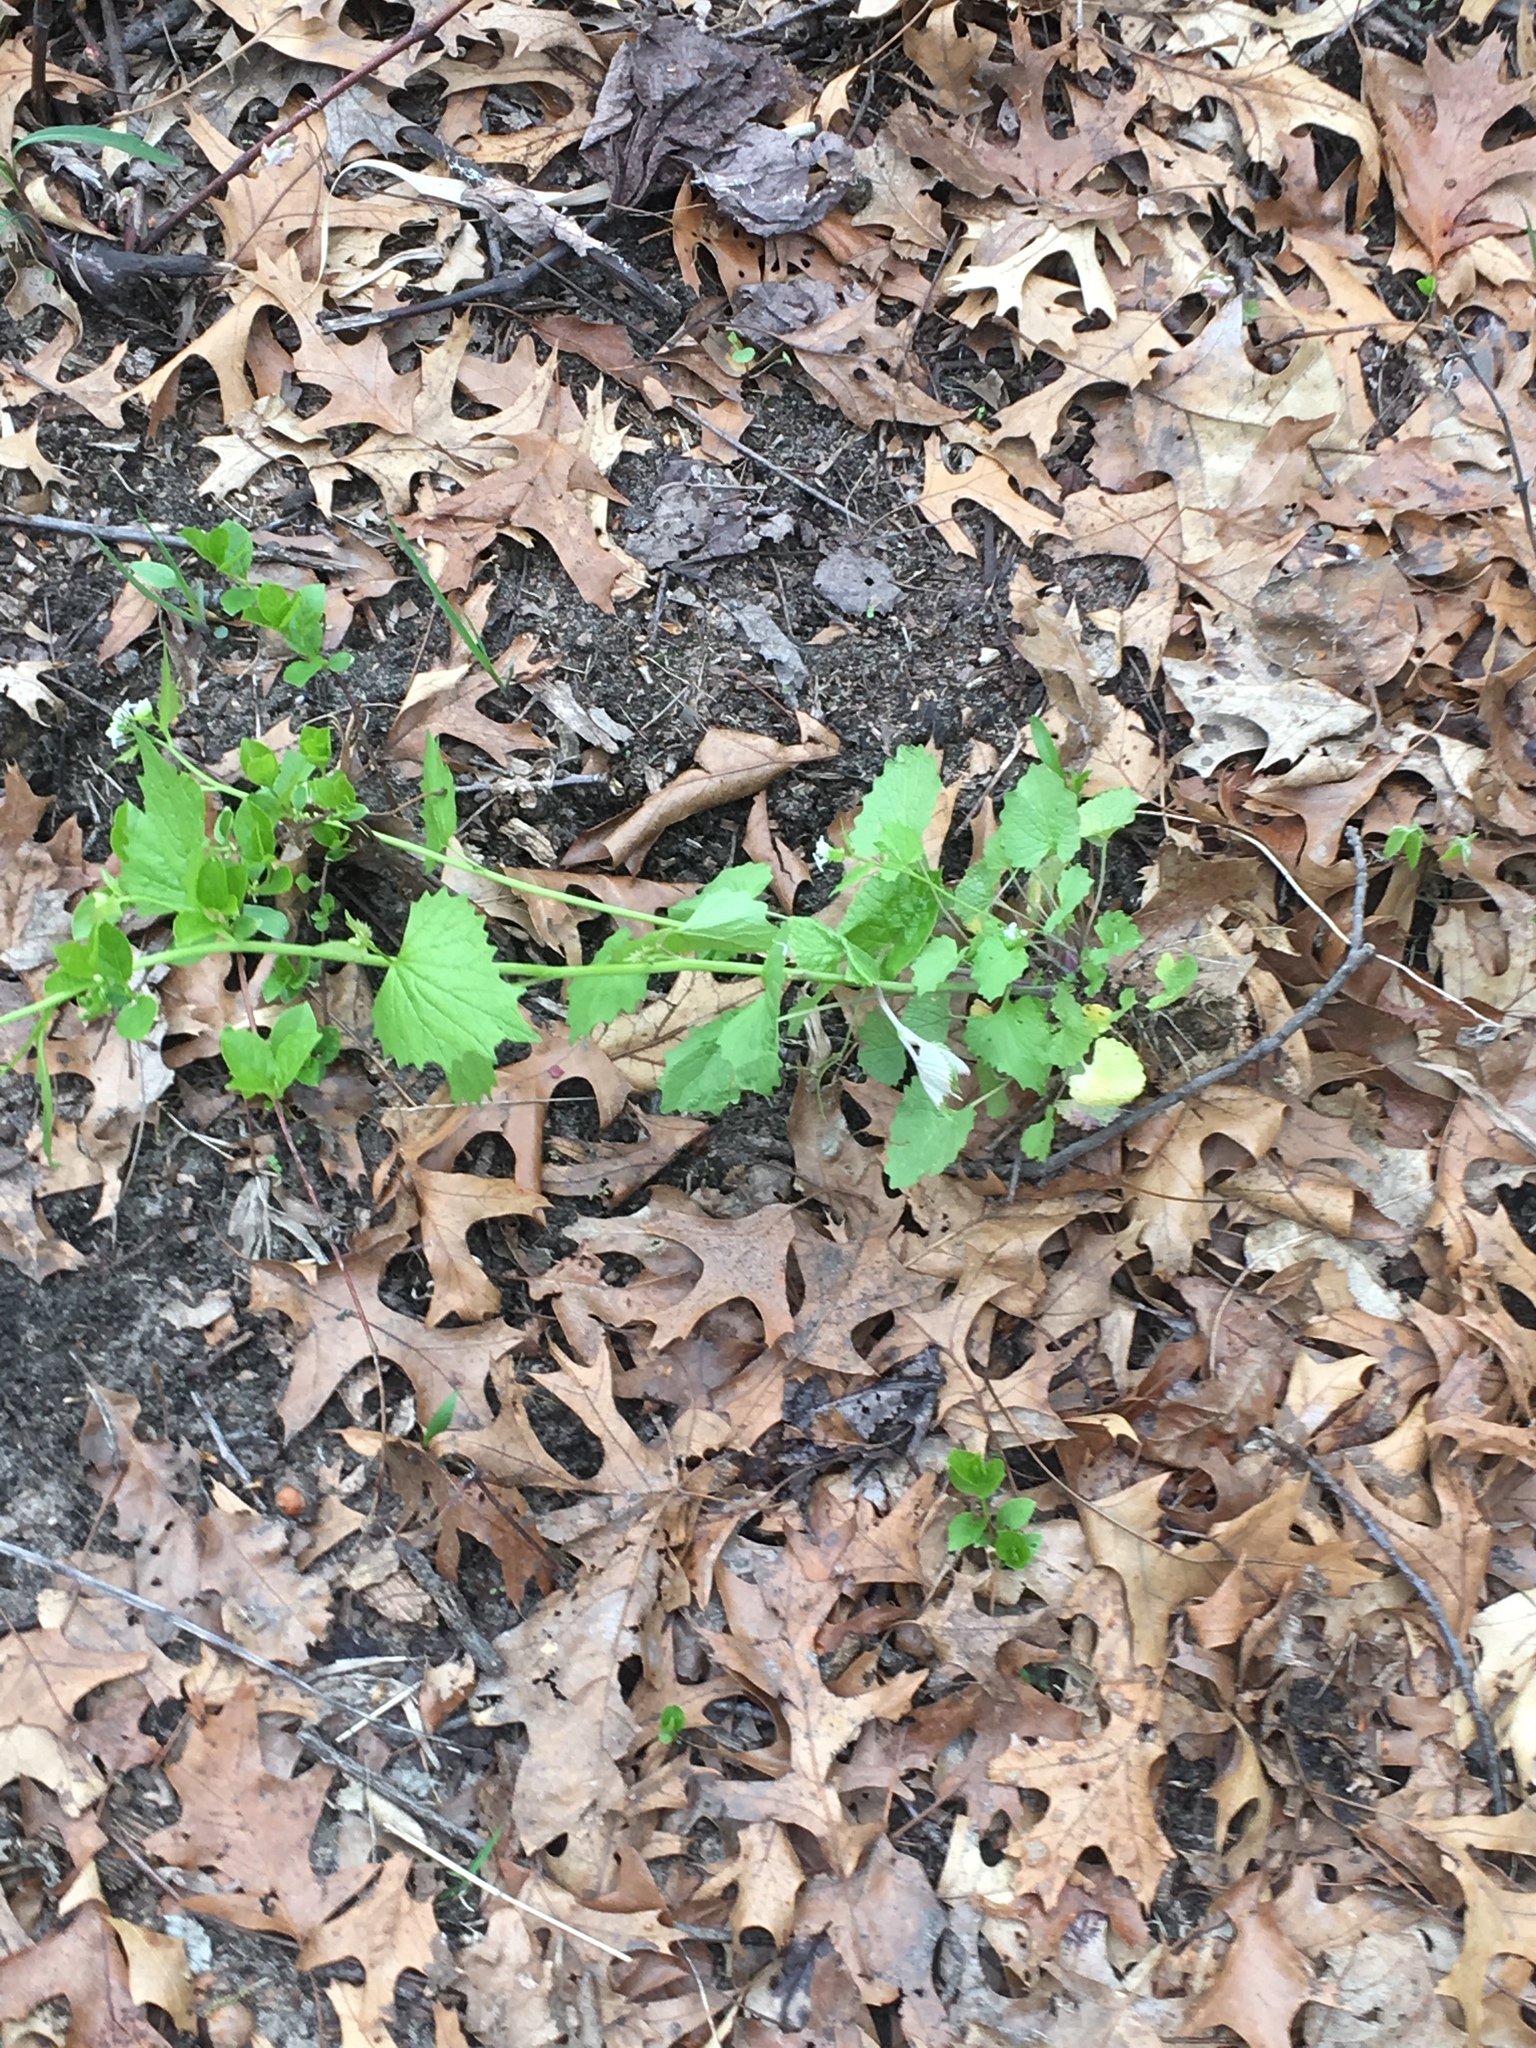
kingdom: Plantae
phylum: Tracheophyta
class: Magnoliopsida
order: Brassicales
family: Brassicaceae
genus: Alliaria
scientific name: Alliaria petiolata
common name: Garlic mustard
